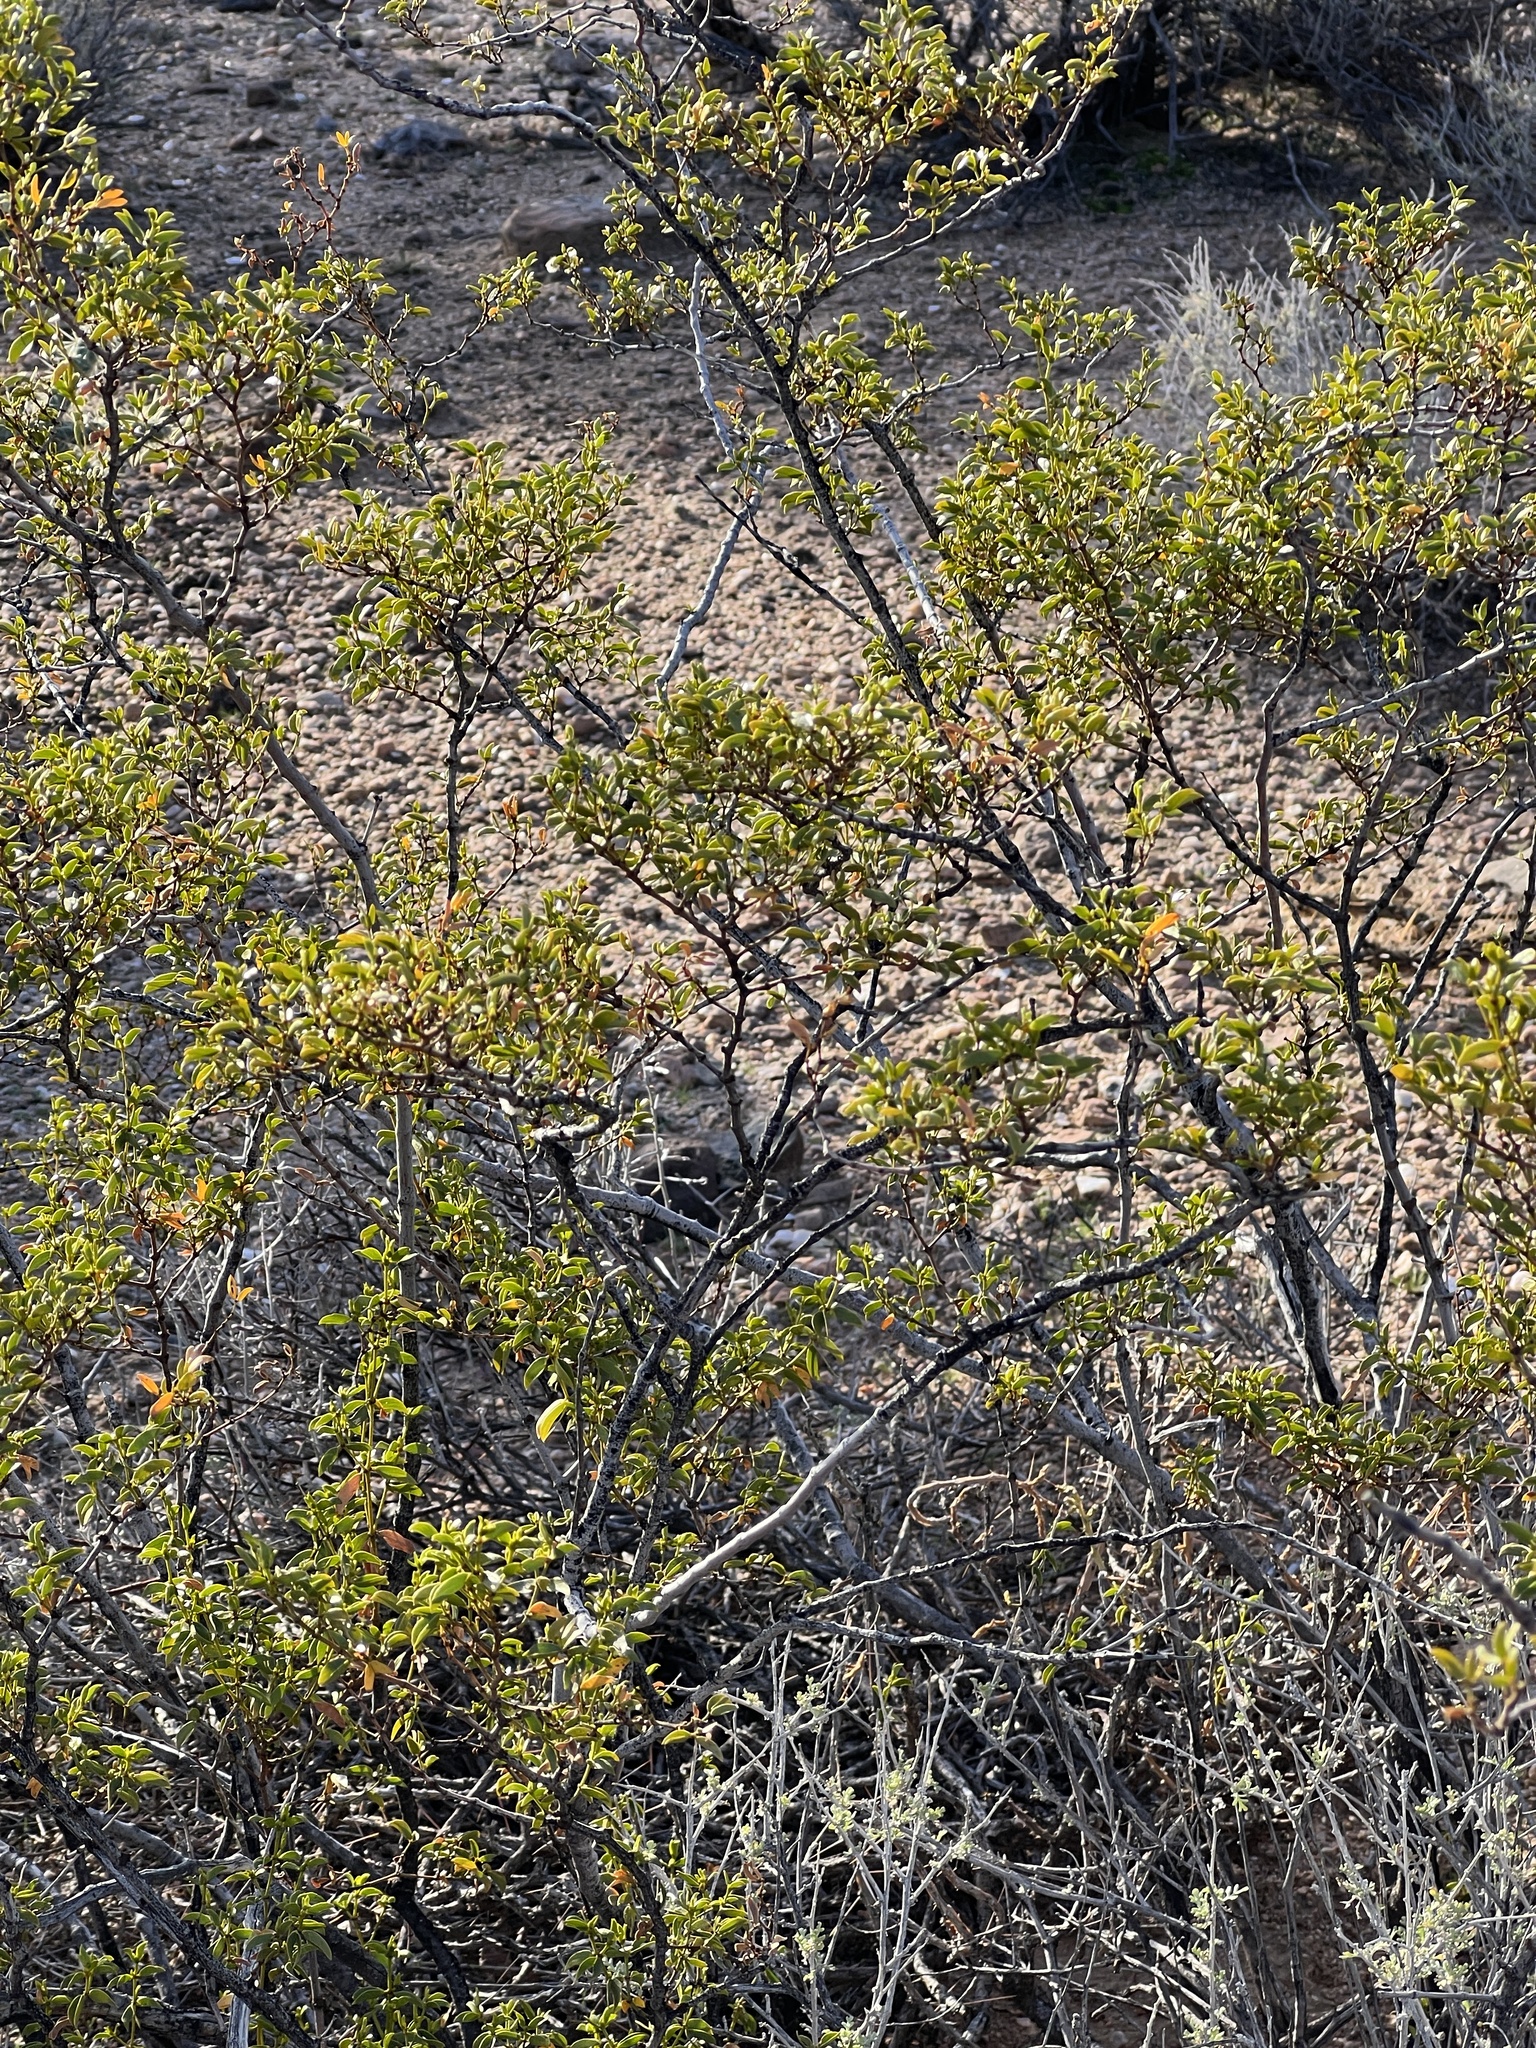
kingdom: Plantae
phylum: Tracheophyta
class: Magnoliopsida
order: Zygophyllales
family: Zygophyllaceae
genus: Larrea
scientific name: Larrea tridentata
